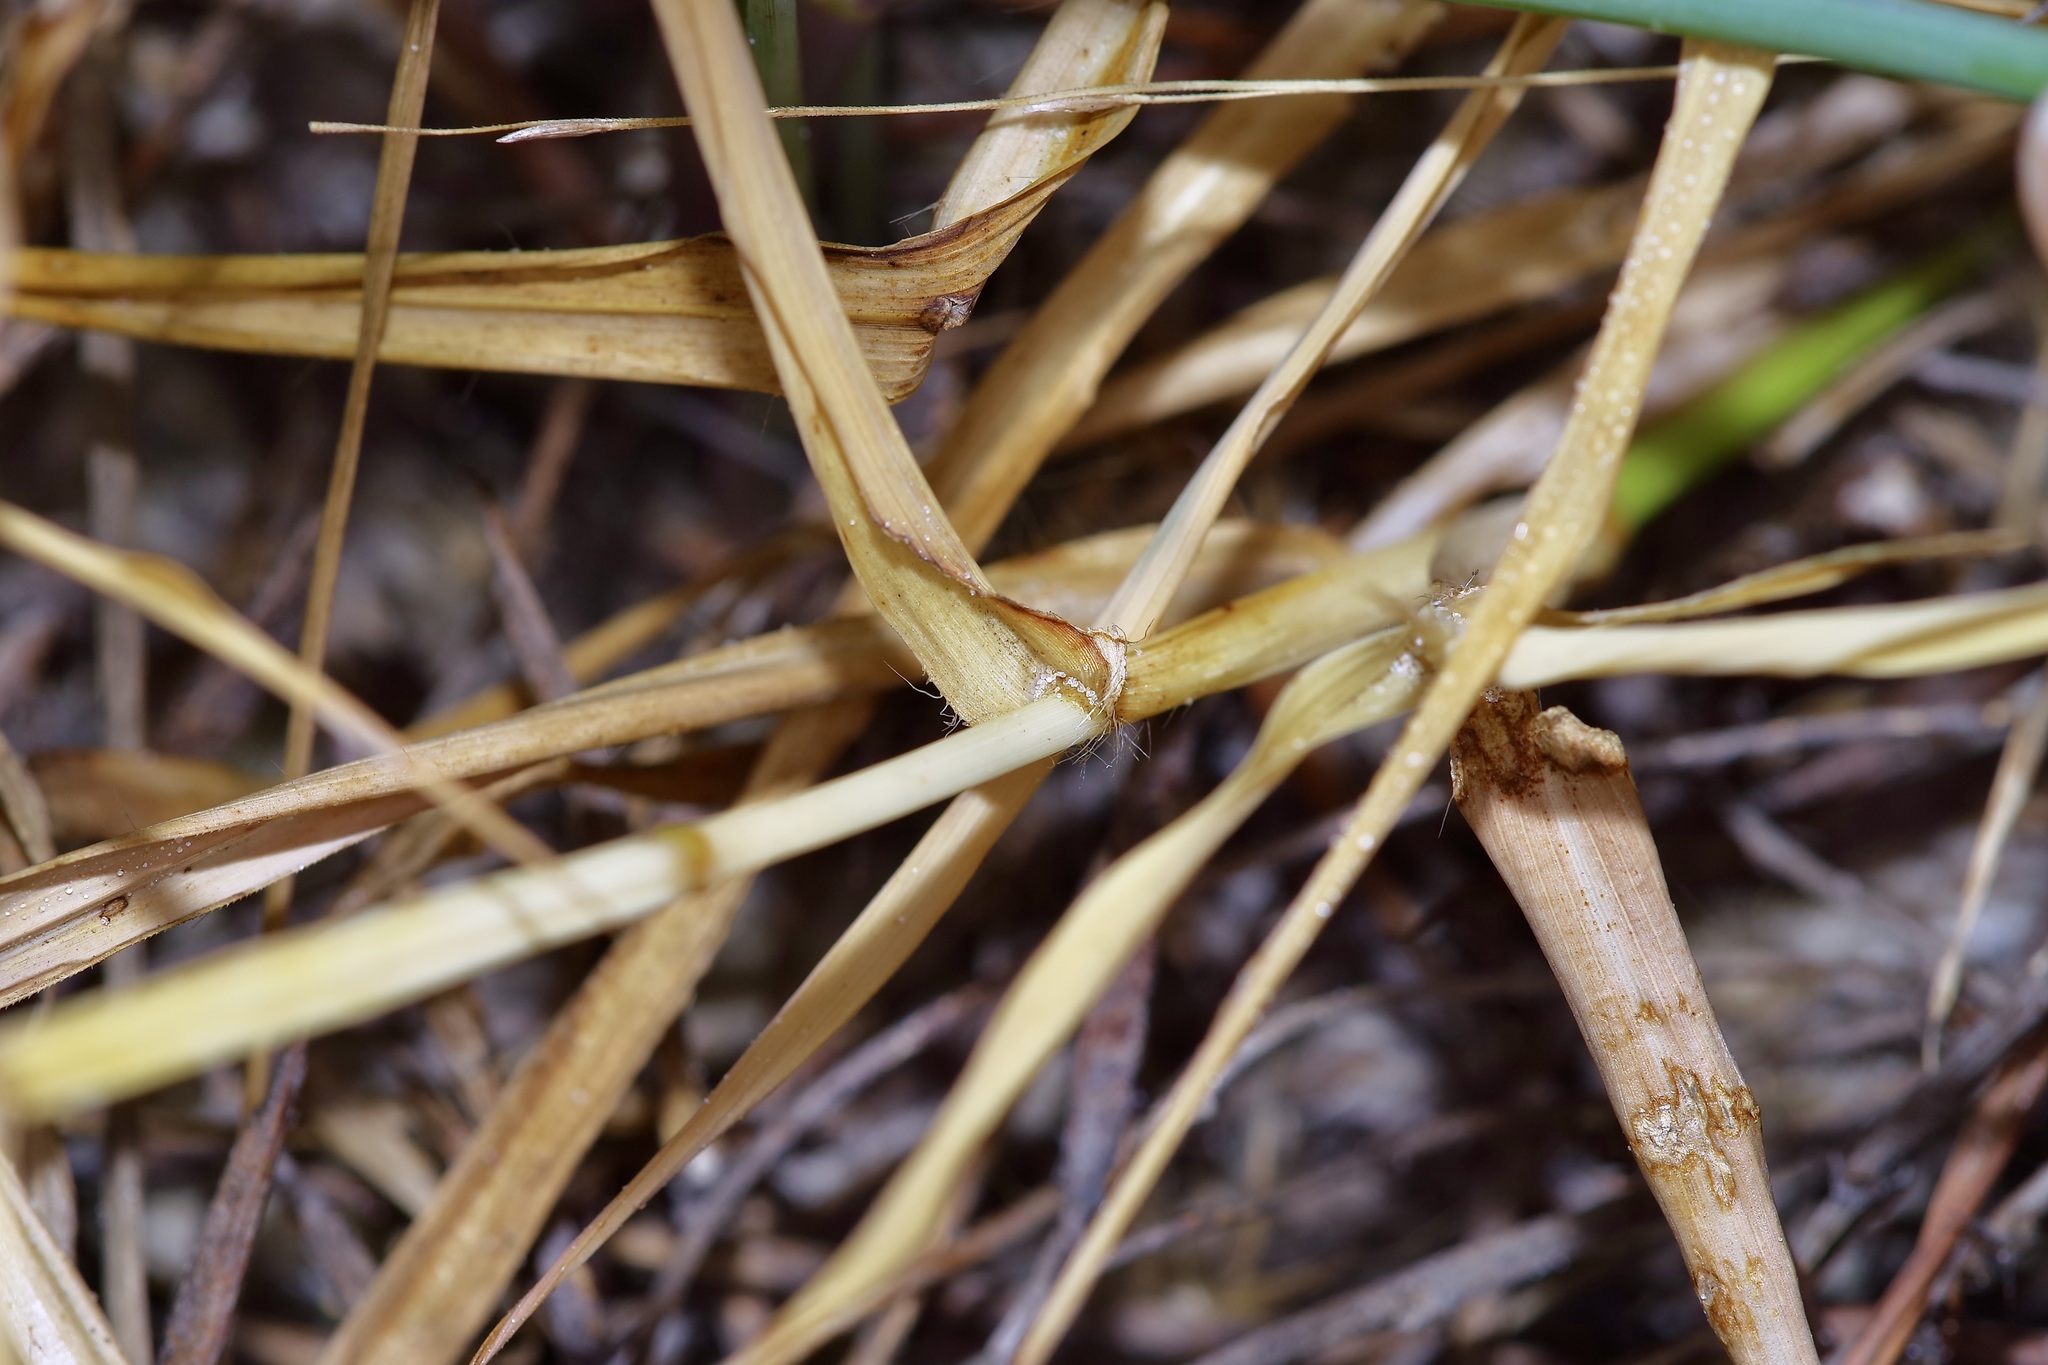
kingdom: Plantae
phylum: Tracheophyta
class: Liliopsida
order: Poales
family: Poaceae
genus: Dactyloctenium
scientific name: Dactyloctenium aegyptium
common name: Egyptian grass
